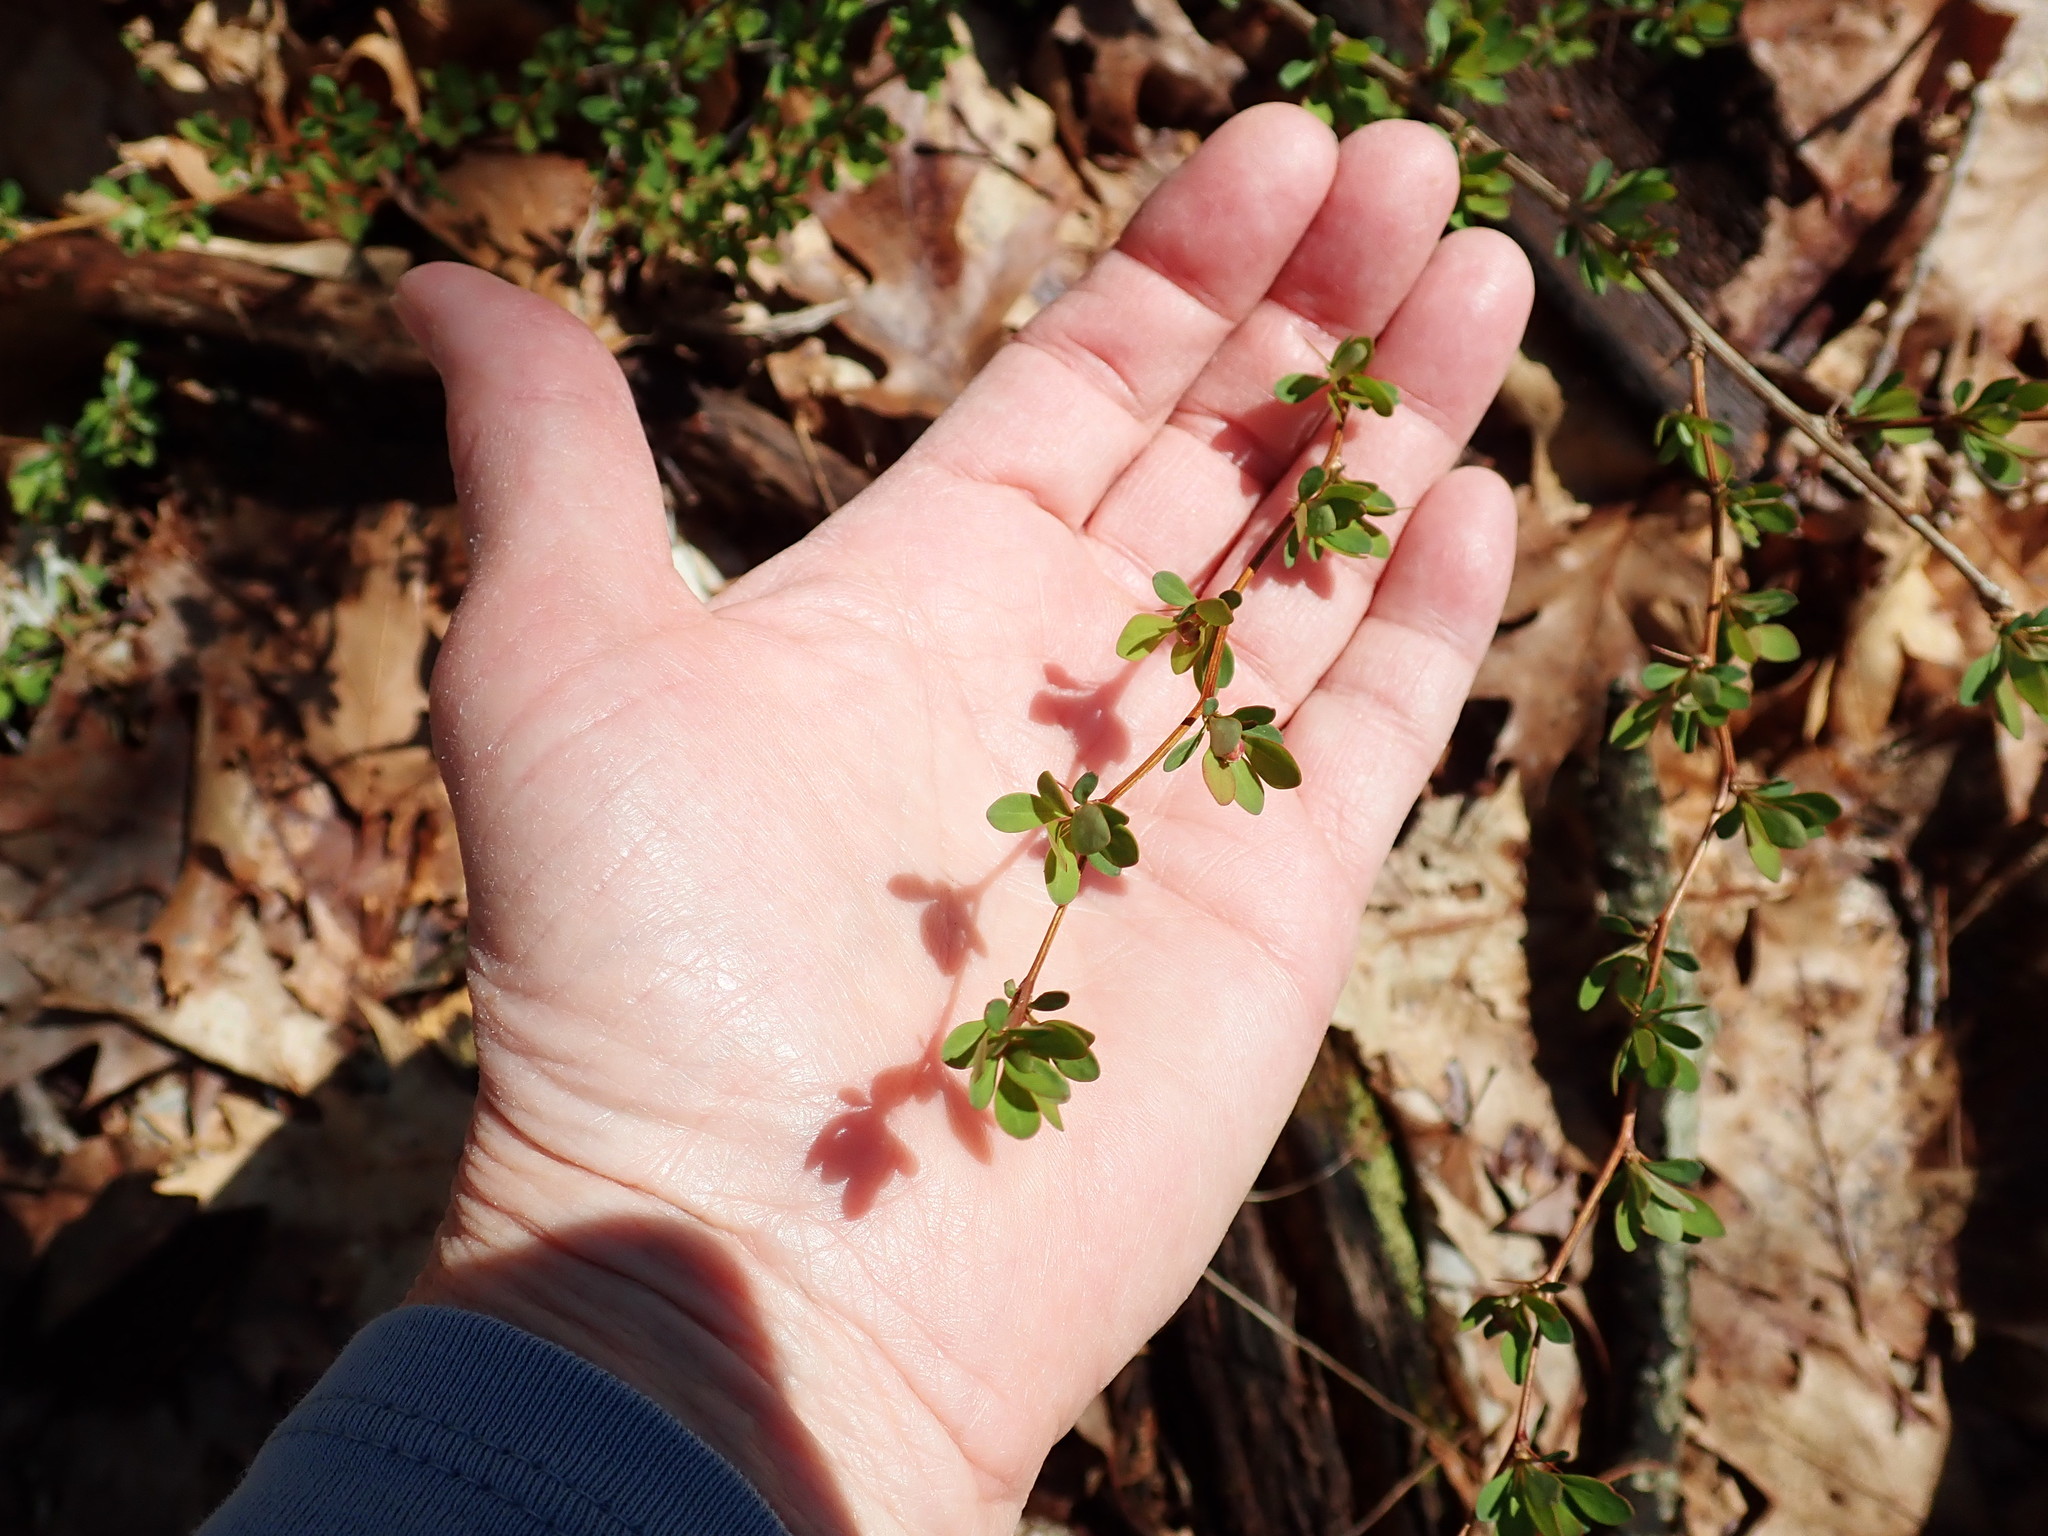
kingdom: Plantae
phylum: Tracheophyta
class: Magnoliopsida
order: Ranunculales
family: Berberidaceae
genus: Berberis
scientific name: Berberis thunbergii
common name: Japanese barberry
